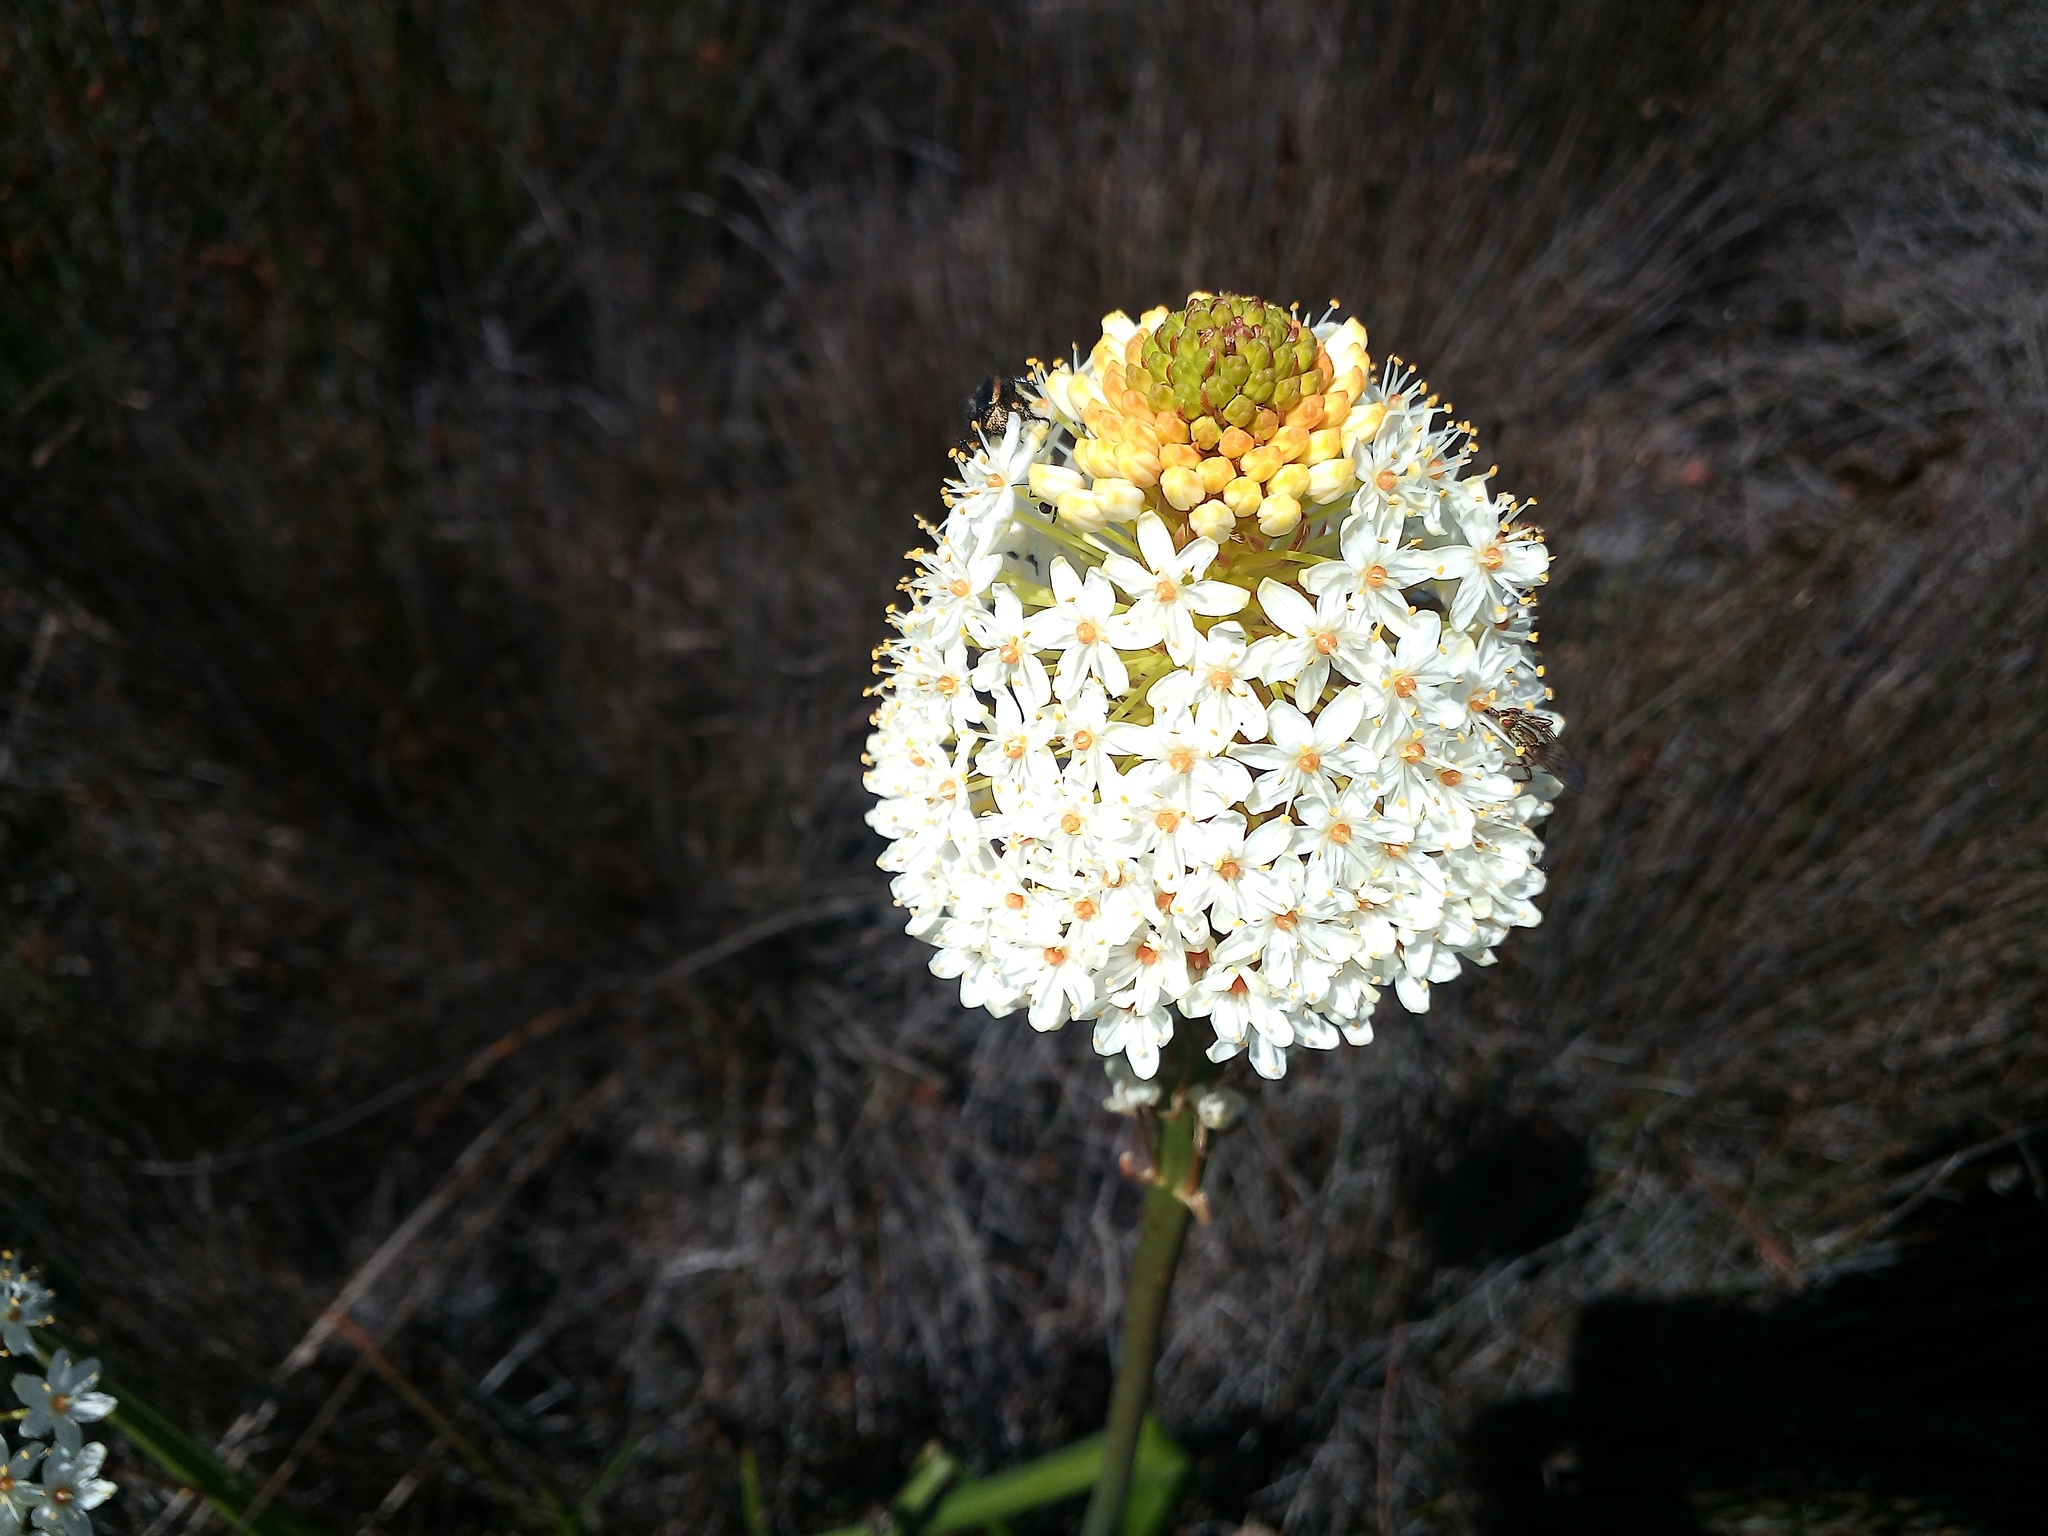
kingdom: Plantae
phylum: Tracheophyta
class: Liliopsida
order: Asparagales
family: Asphodelaceae
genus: Bulbinella
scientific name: Bulbinella nutans
